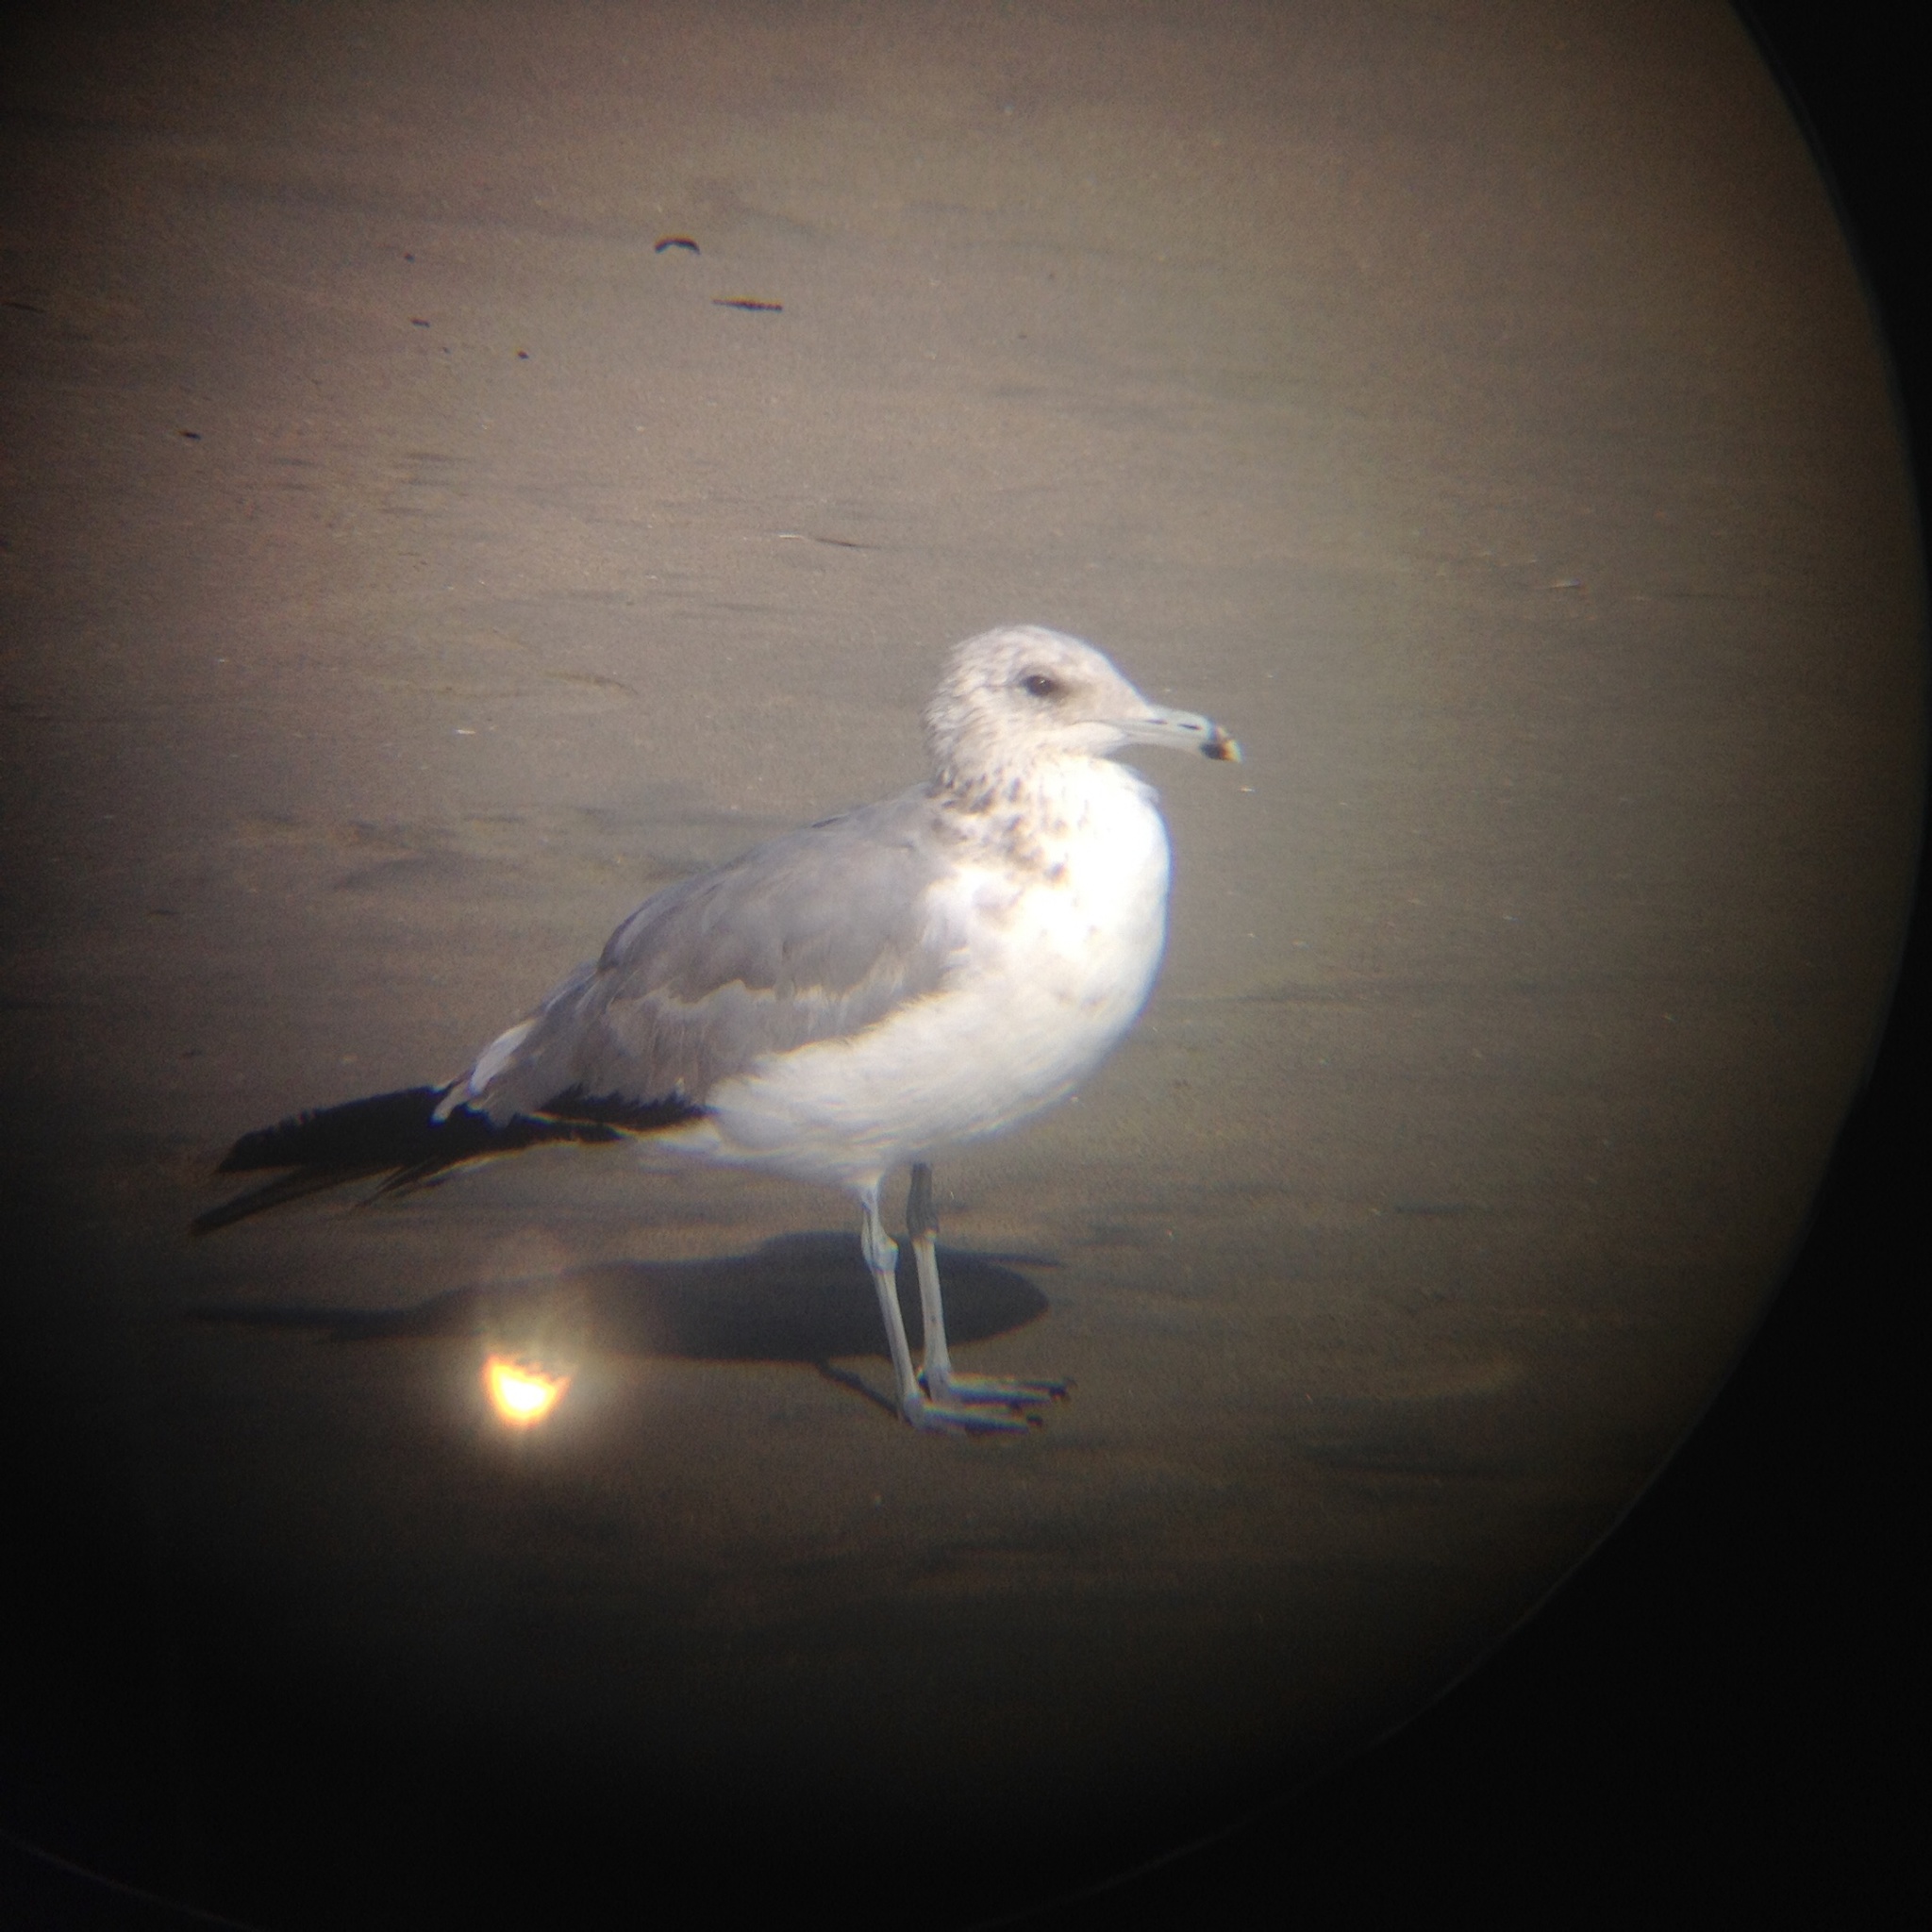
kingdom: Animalia
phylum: Chordata
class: Aves
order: Charadriiformes
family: Laridae
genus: Larus
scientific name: Larus californicus
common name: California gull
